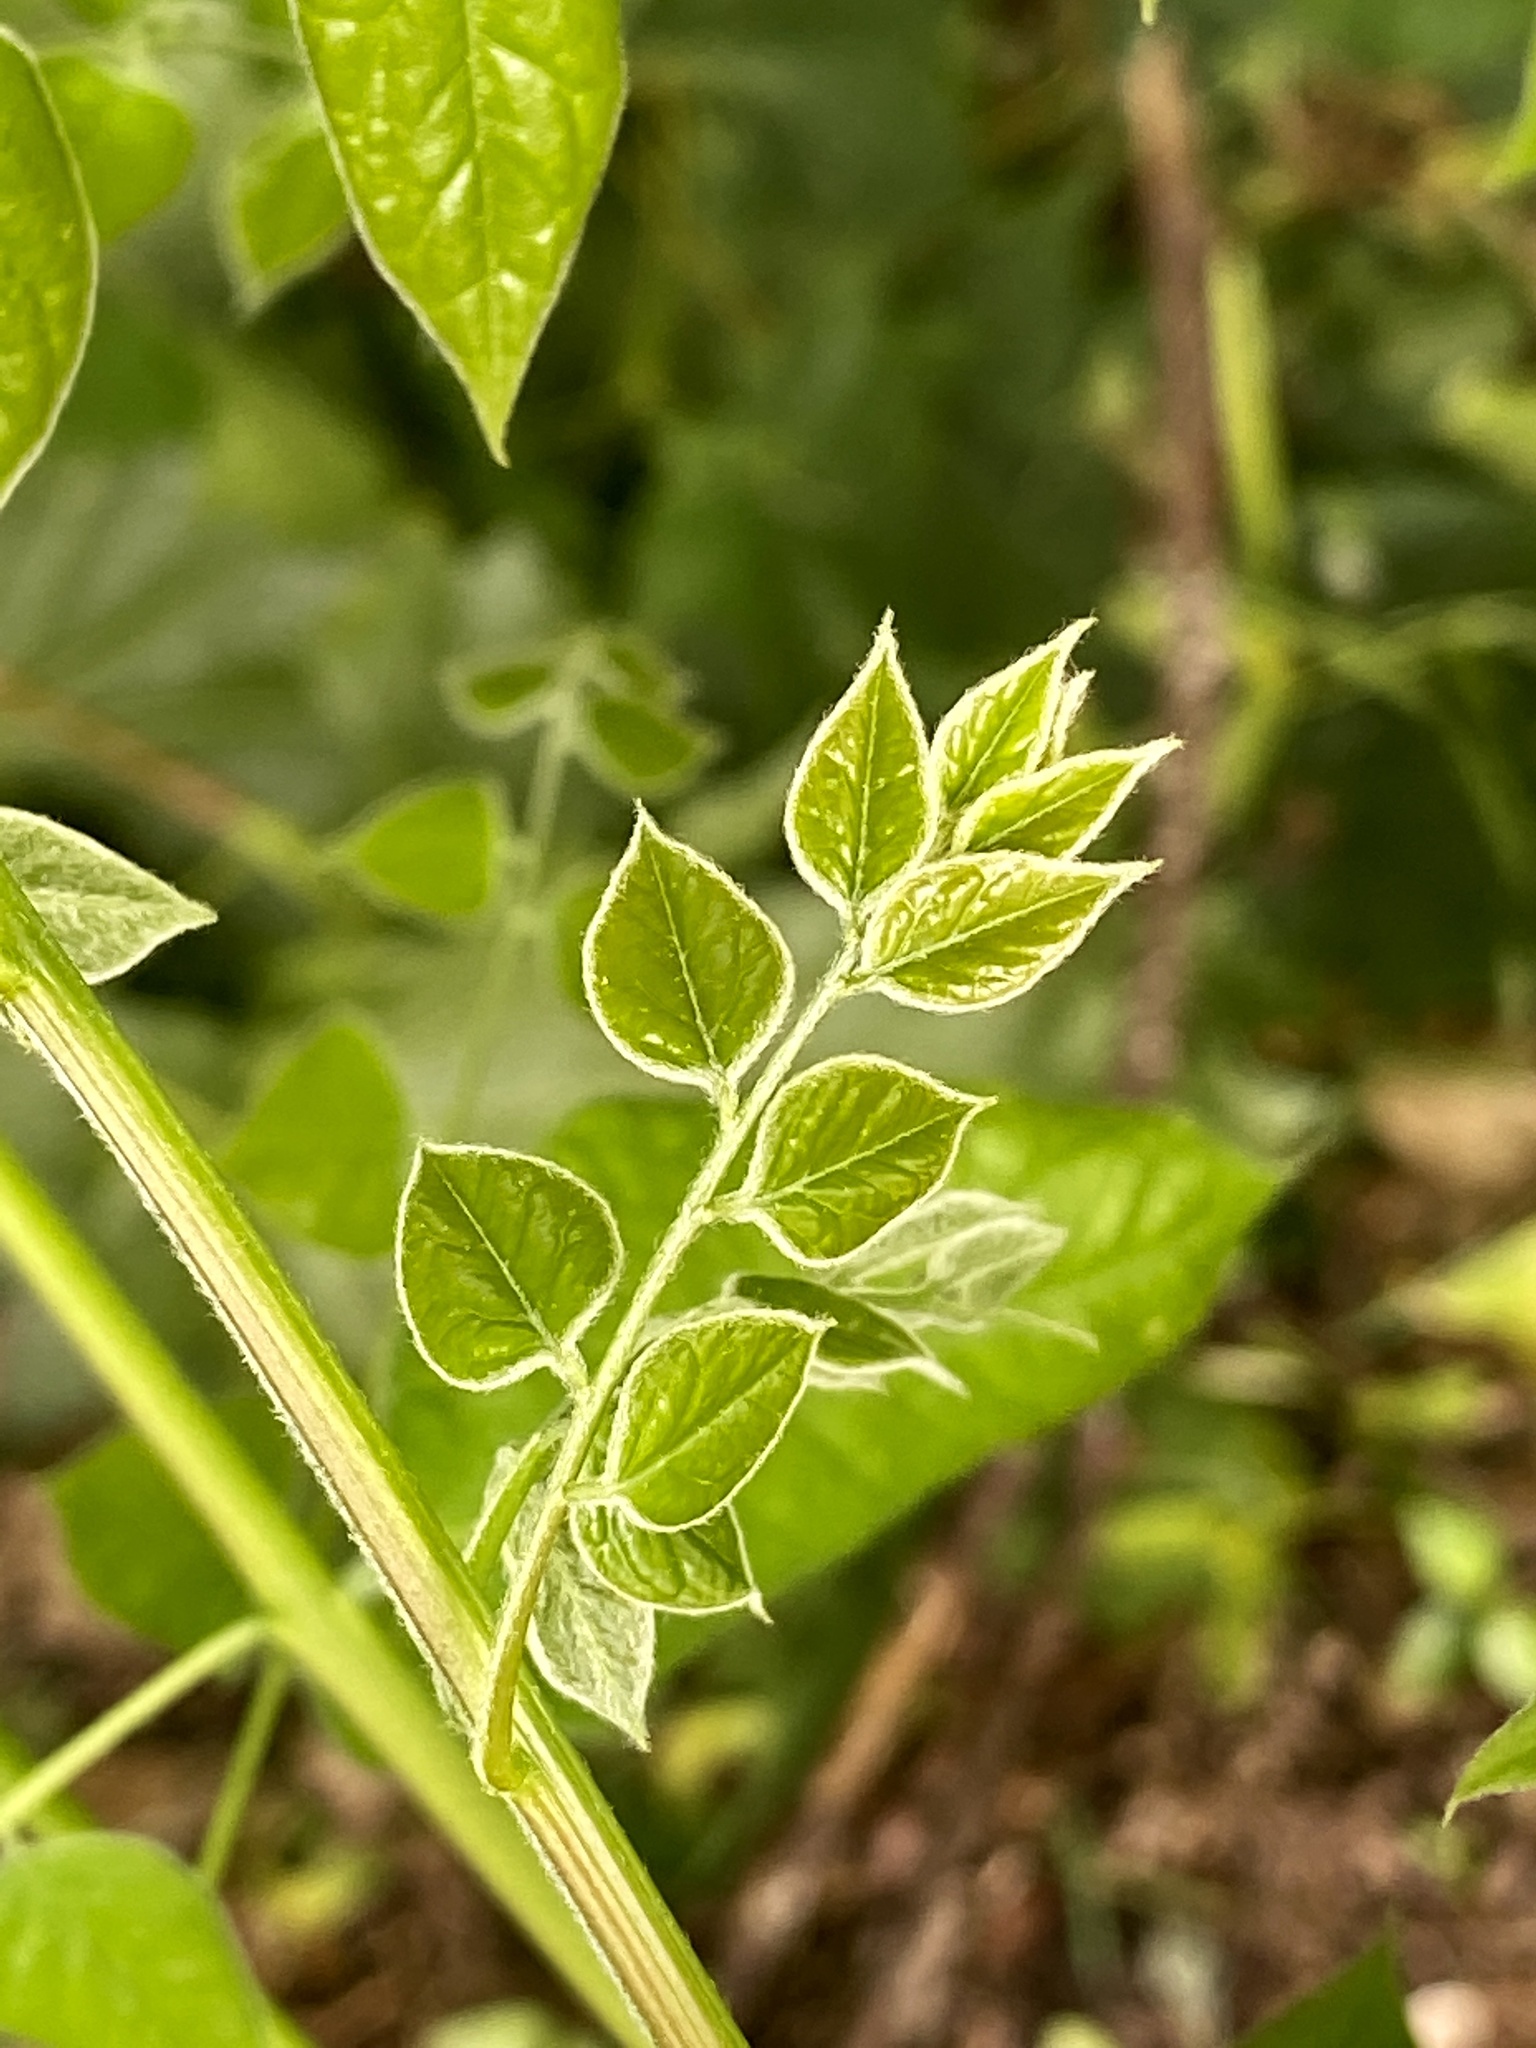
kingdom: Plantae
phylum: Tracheophyta
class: Magnoliopsida
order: Fabales
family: Fabaceae
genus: Gymnocladus
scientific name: Gymnocladus dioicus
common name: Kentucky coffee-tree
